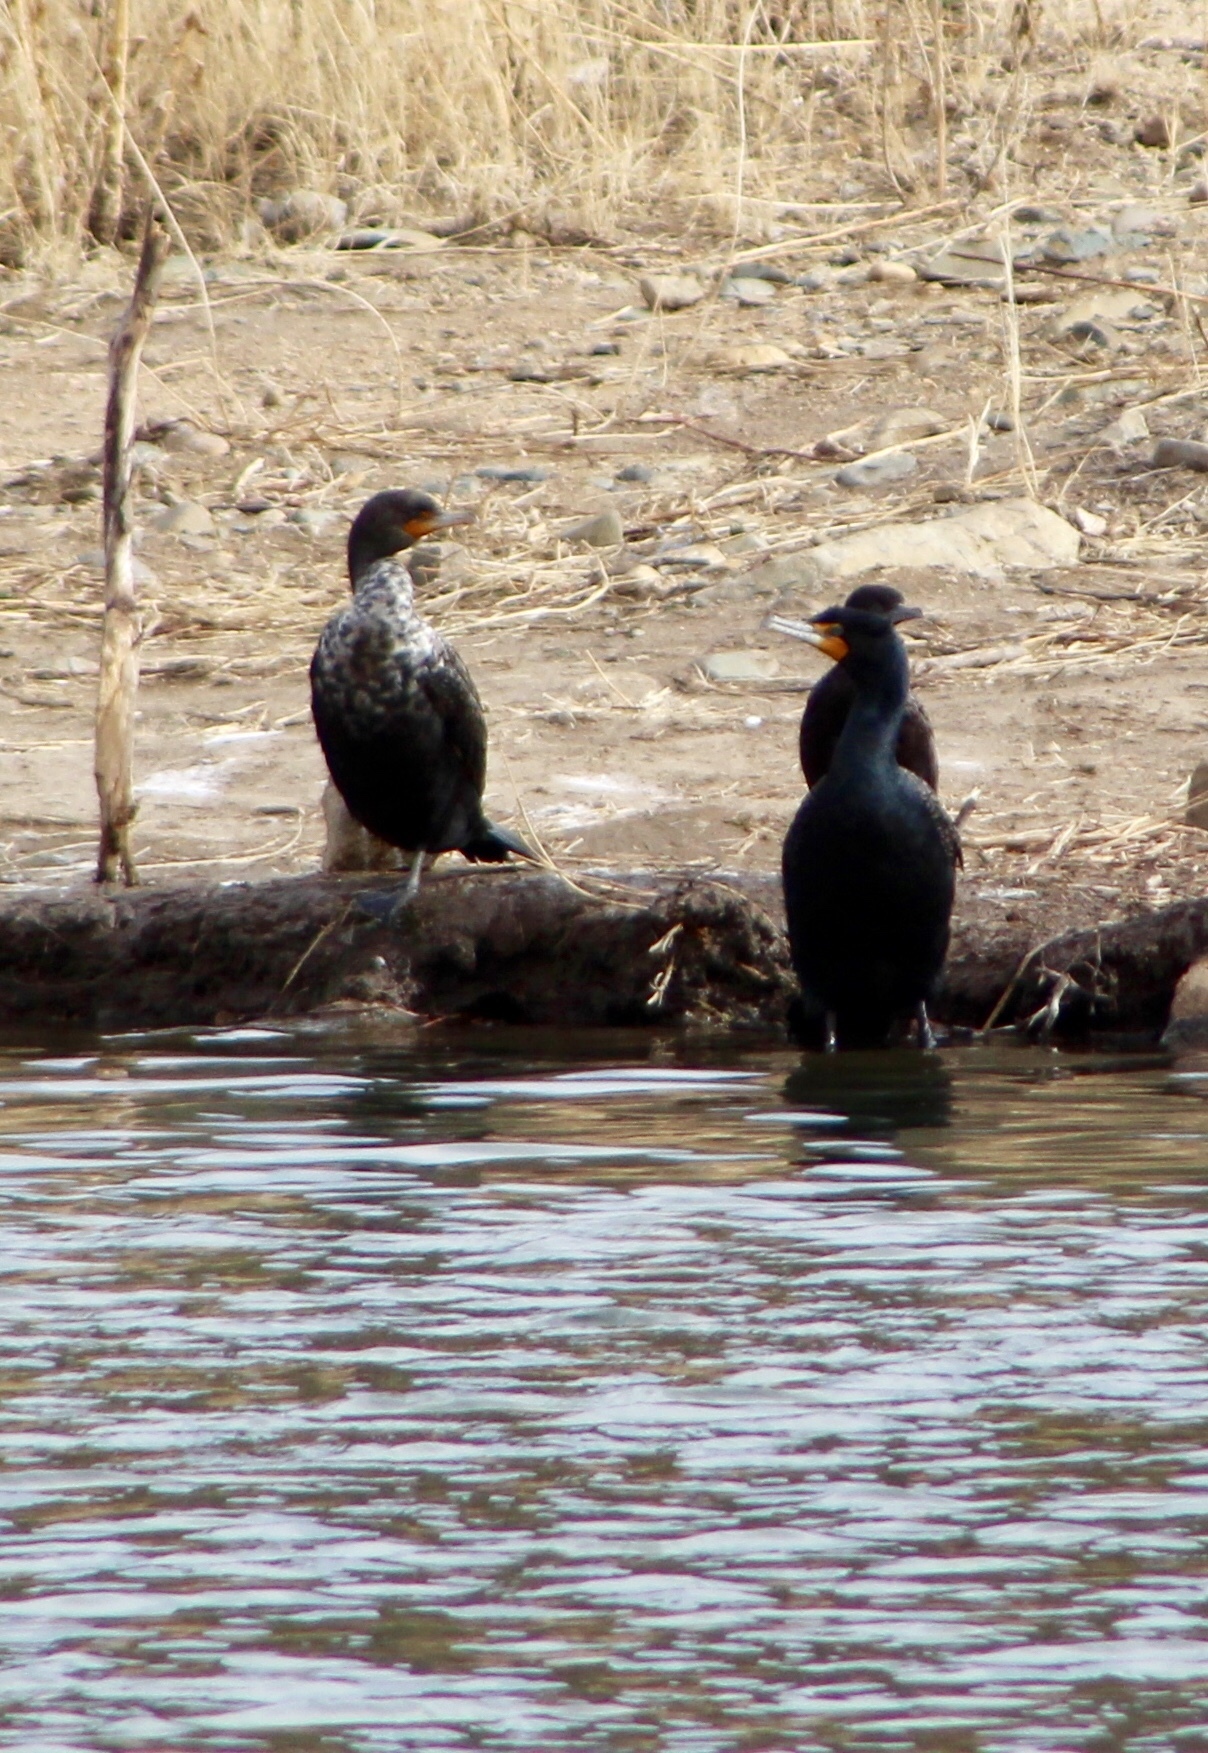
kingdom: Animalia
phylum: Chordata
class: Aves
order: Suliformes
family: Phalacrocoracidae
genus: Phalacrocorax
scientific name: Phalacrocorax auritus
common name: Double-crested cormorant
